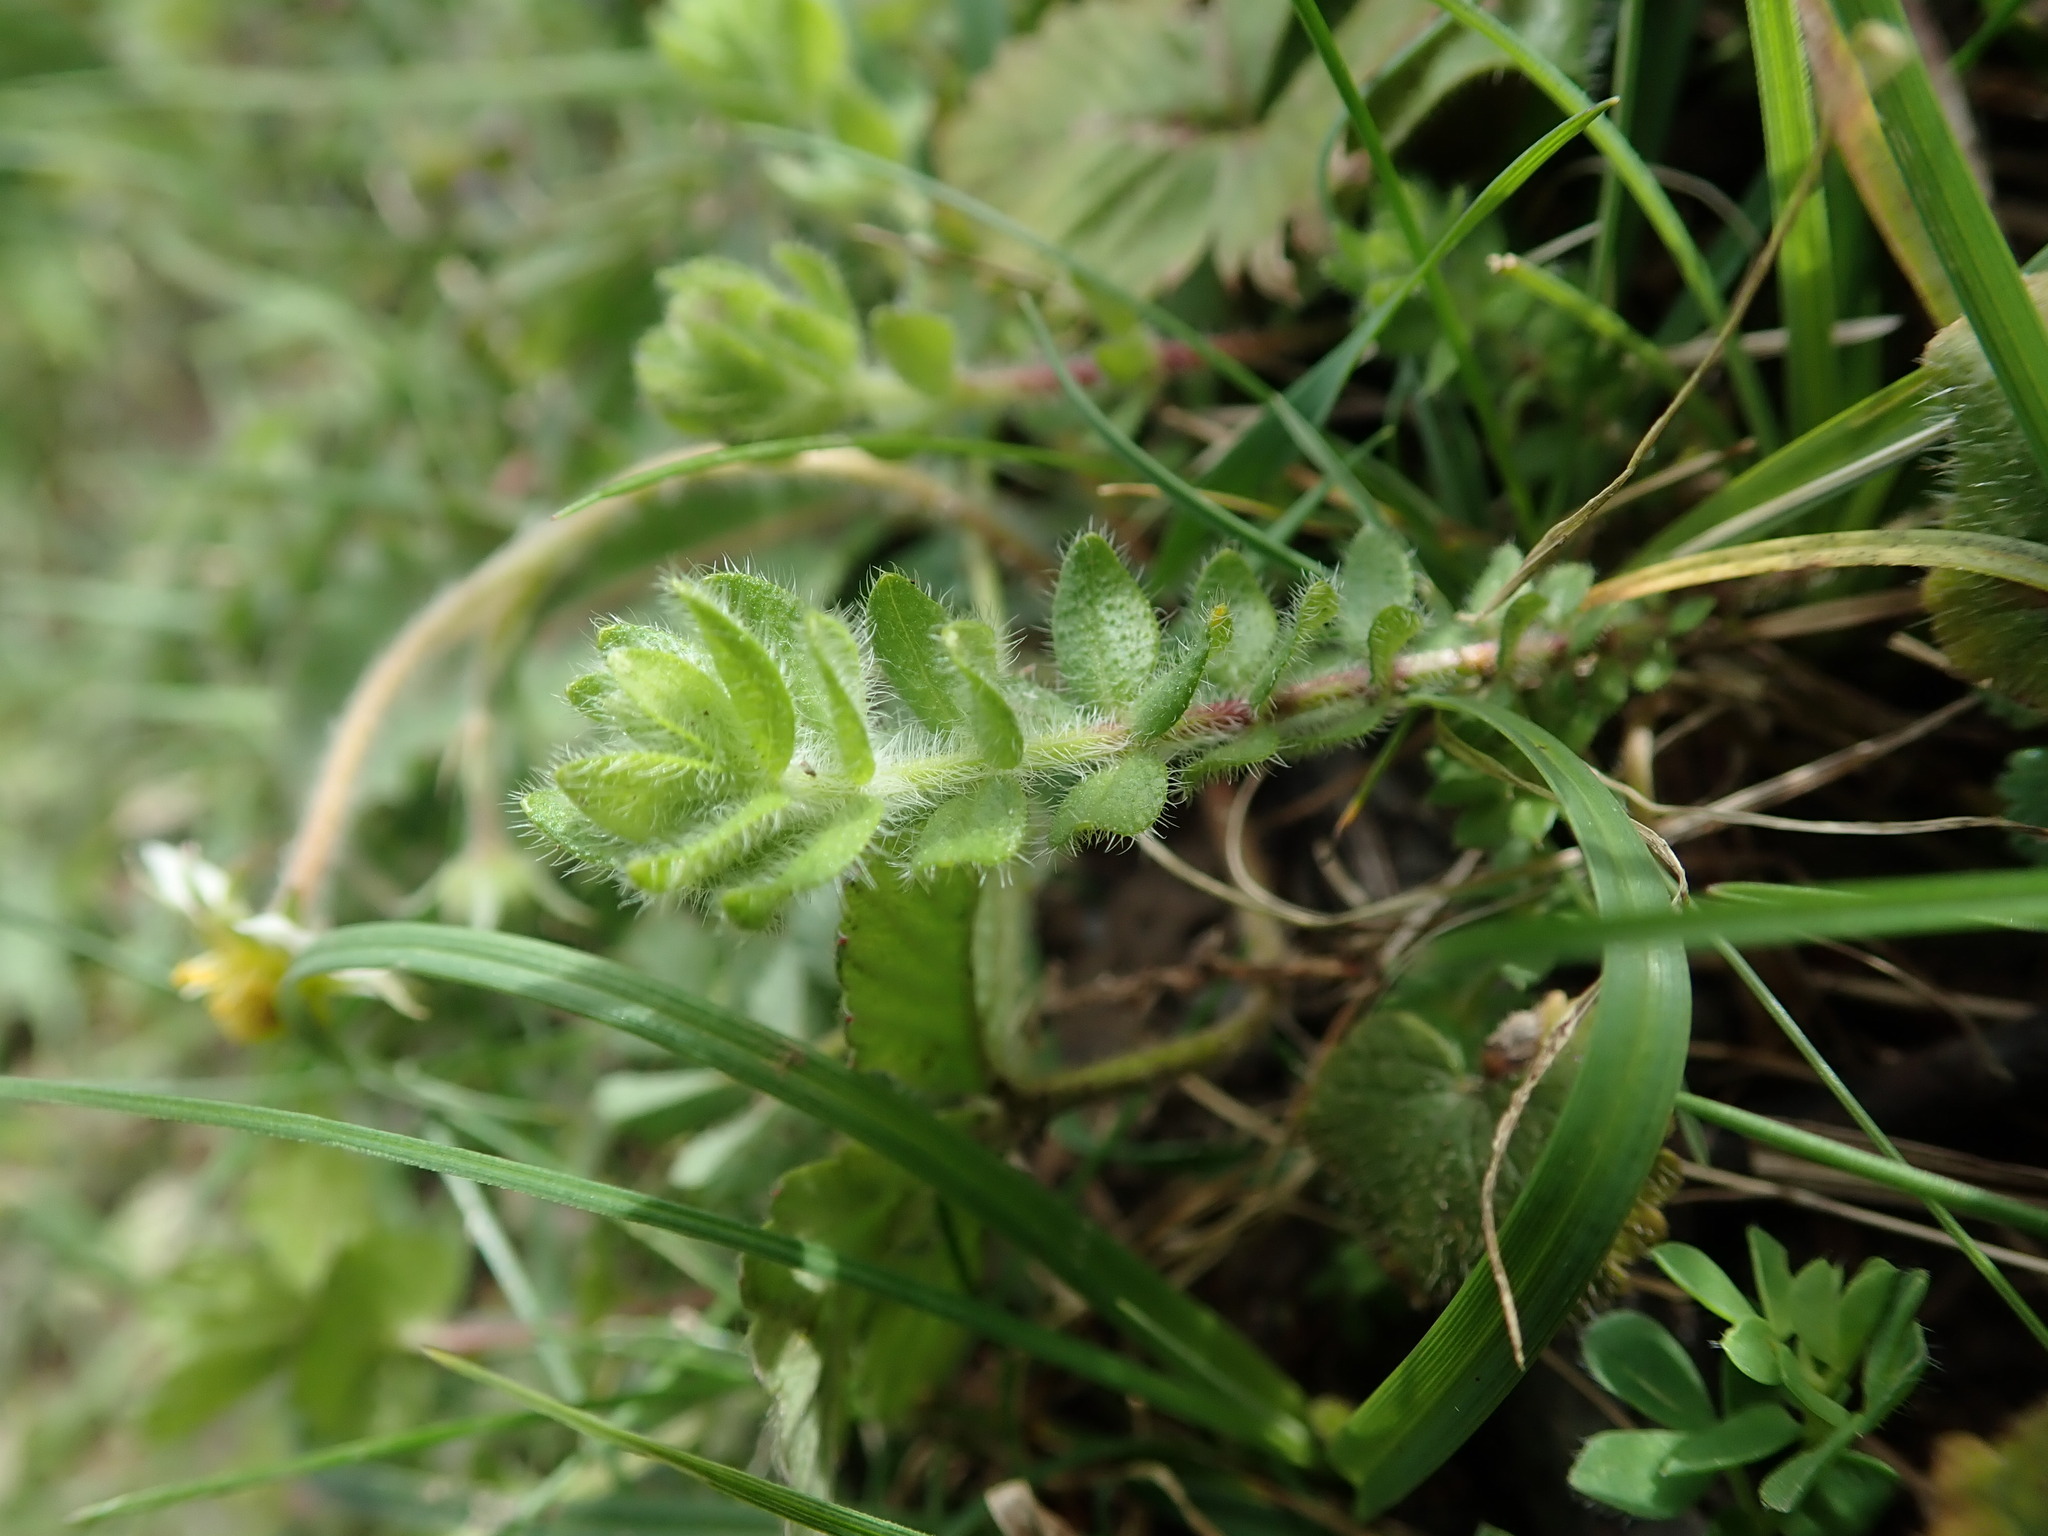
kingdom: Plantae
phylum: Tracheophyta
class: Magnoliopsida
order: Gentianales
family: Rubiaceae
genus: Cruciata
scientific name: Cruciata laevipes
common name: Crosswort
